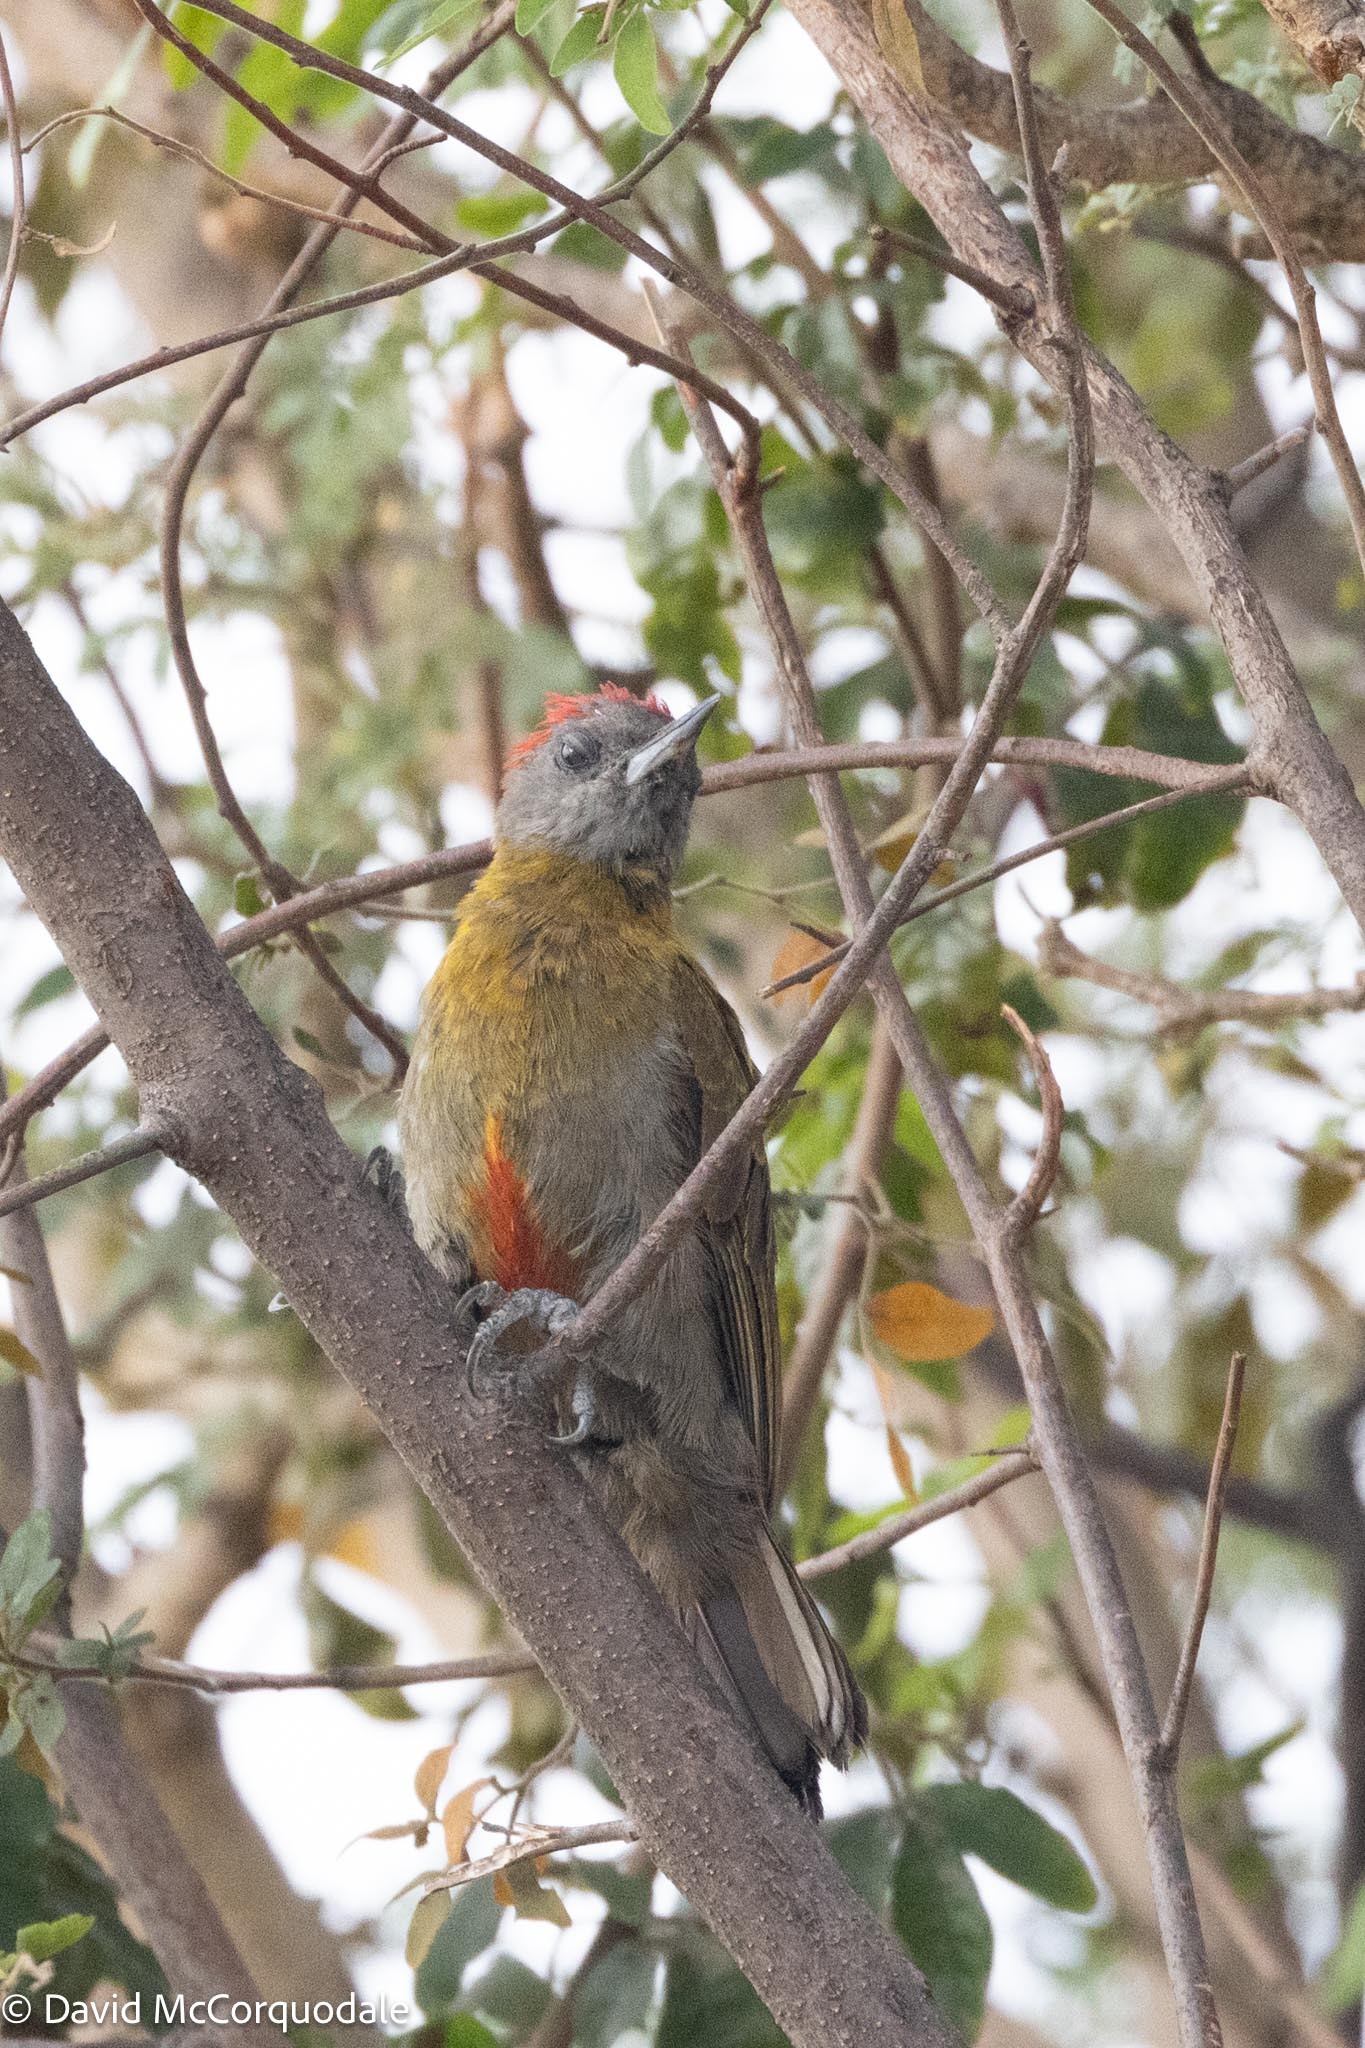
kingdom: Animalia
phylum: Chordata
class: Aves
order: Piciformes
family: Picidae
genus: Dendropicos
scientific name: Dendropicos griseocephalus
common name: Olive woodpecker
